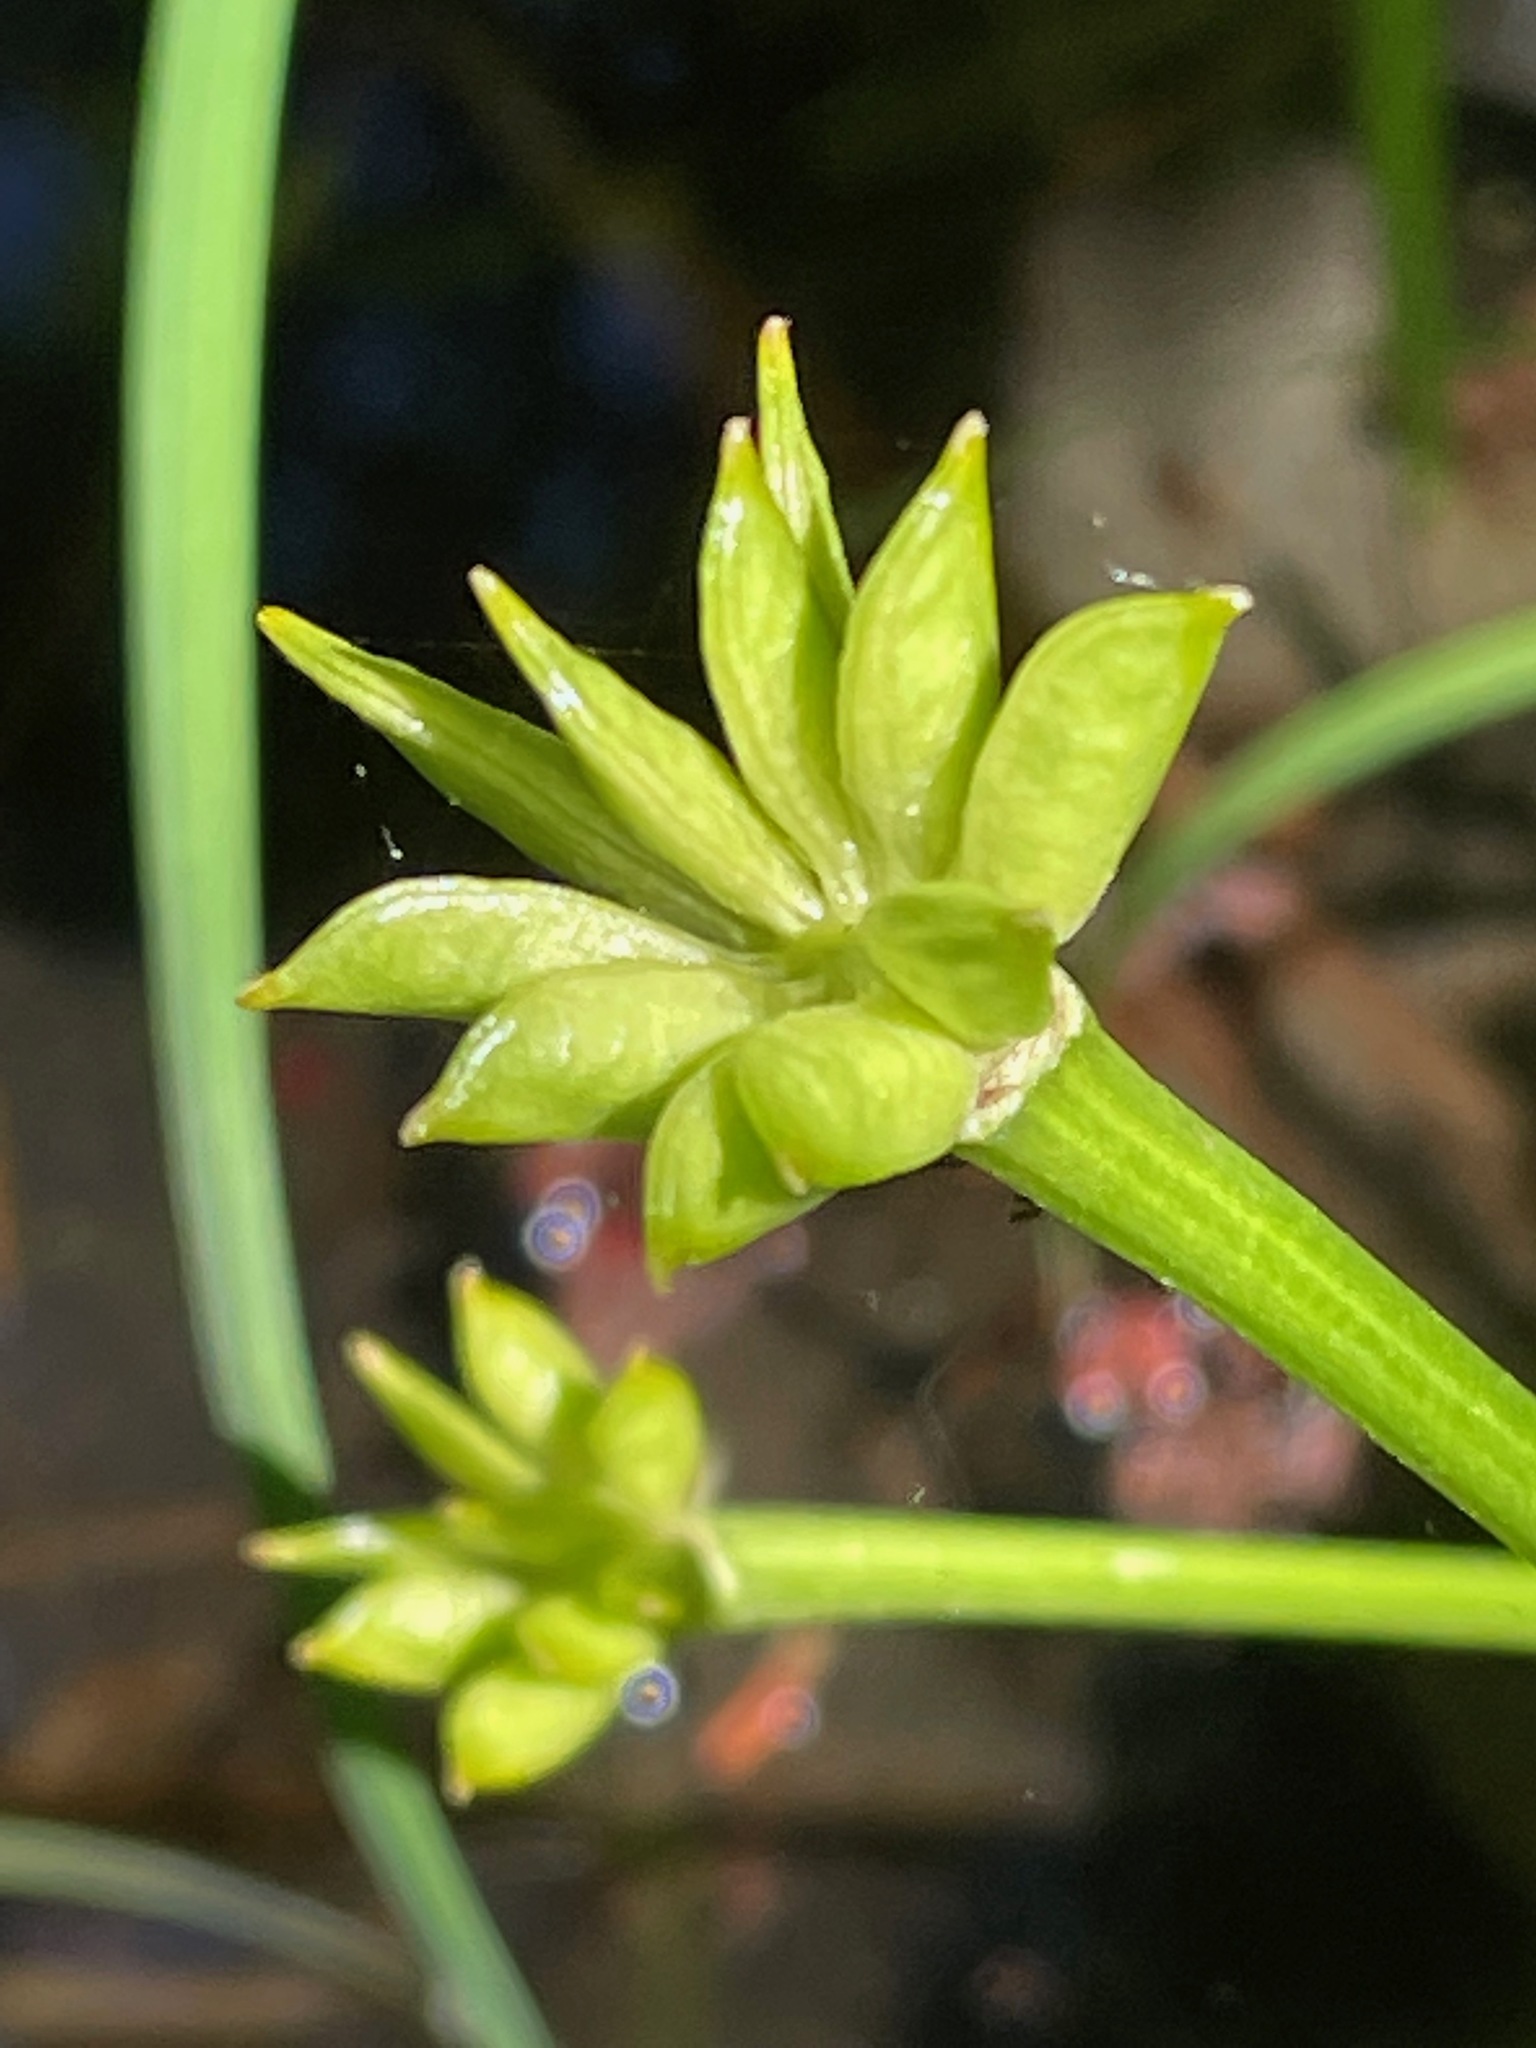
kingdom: Plantae
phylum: Tracheophyta
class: Magnoliopsida
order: Ranunculales
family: Ranunculaceae
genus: Caltha
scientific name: Caltha palustris
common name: Marsh marigold
